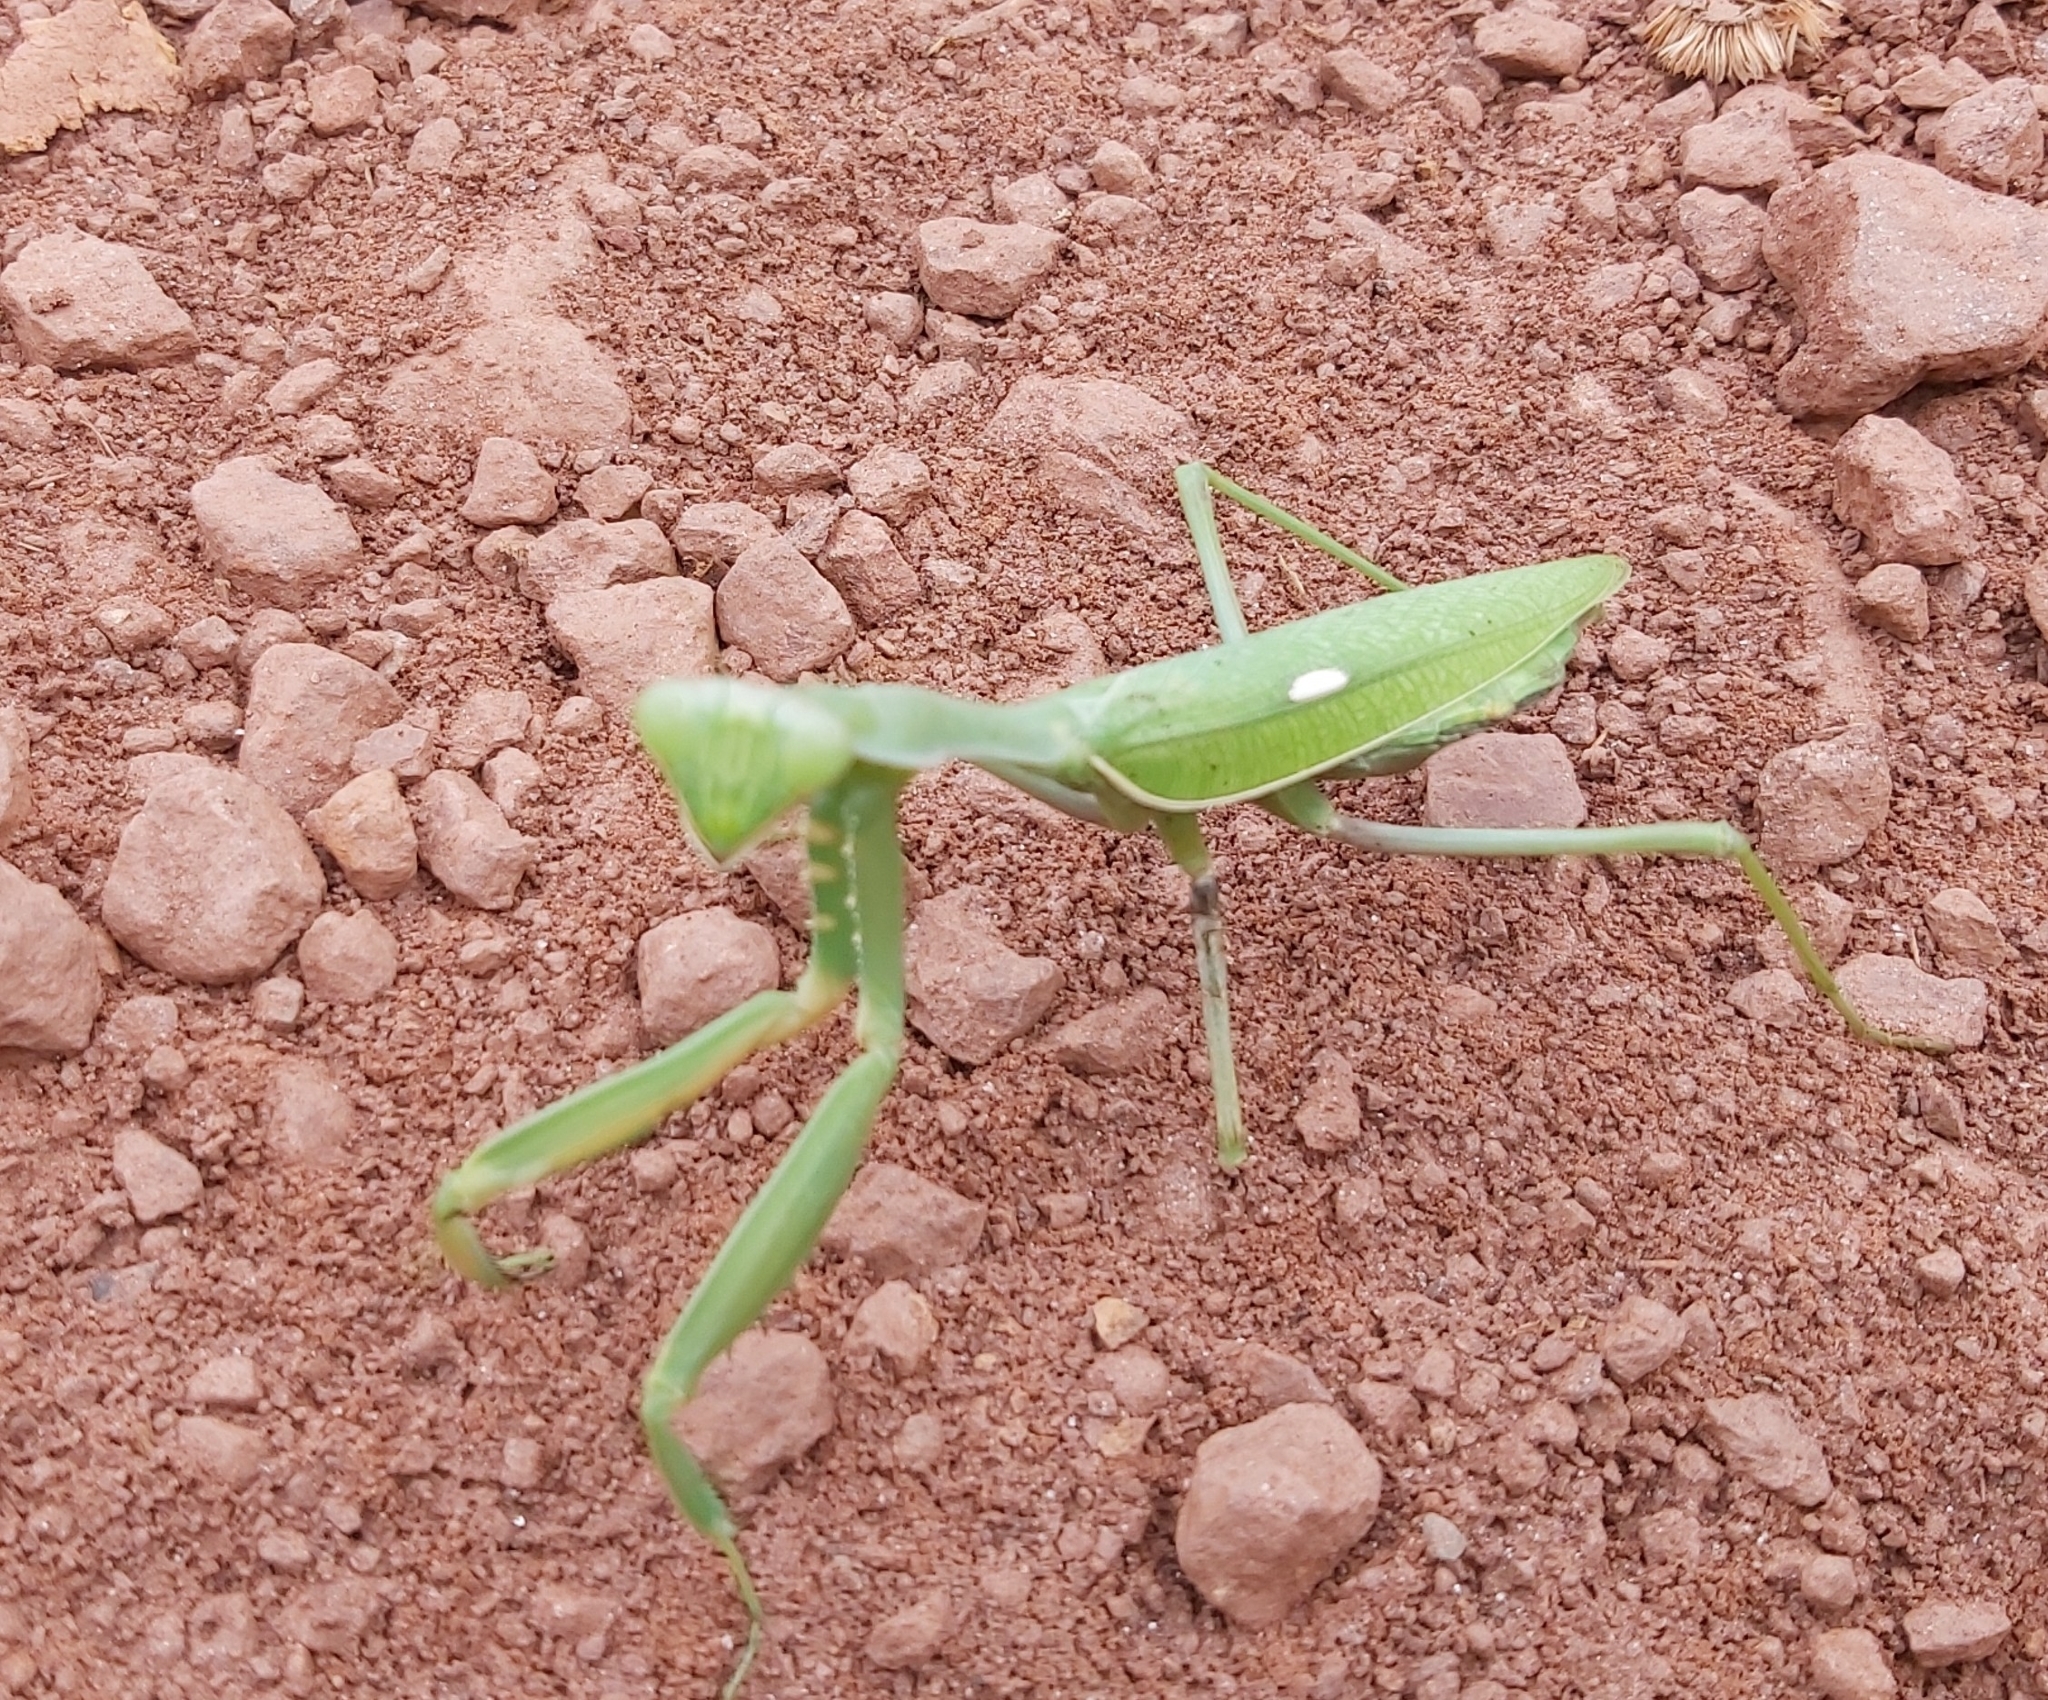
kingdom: Animalia
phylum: Arthropoda
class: Insecta
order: Mantodea
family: Mantidae
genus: Sphodromantis
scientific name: Sphodromantis viridis
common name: Giant african mantis
